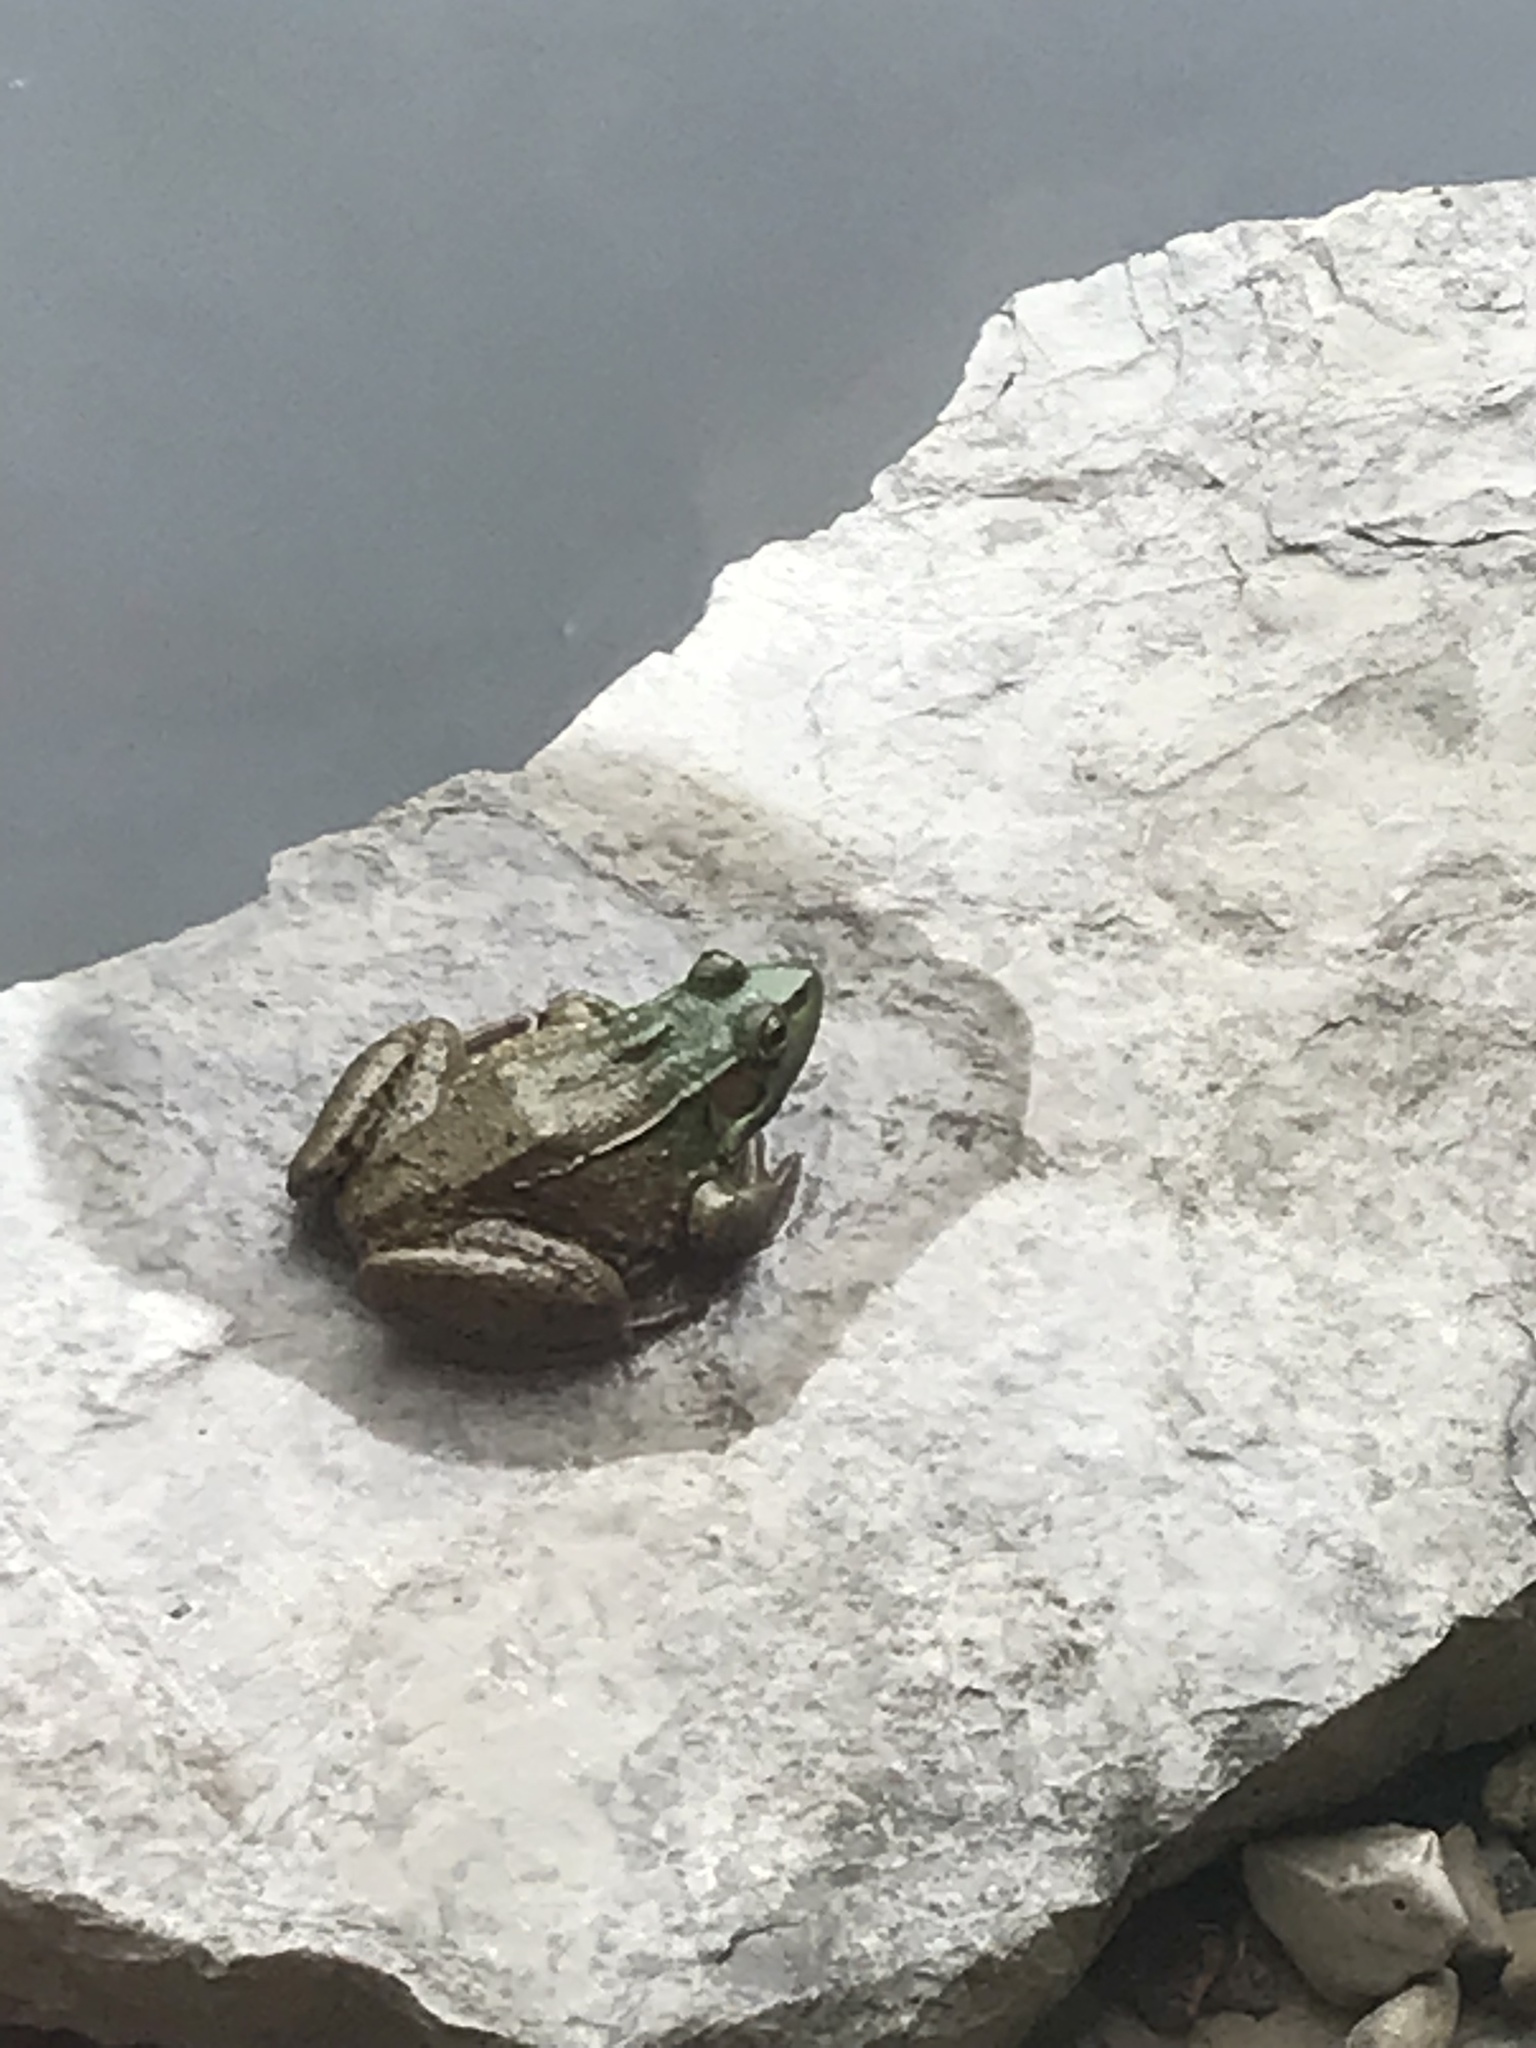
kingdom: Animalia
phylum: Chordata
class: Amphibia
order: Anura
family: Ranidae
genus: Lithobates
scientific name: Lithobates clamitans
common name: Green frog
